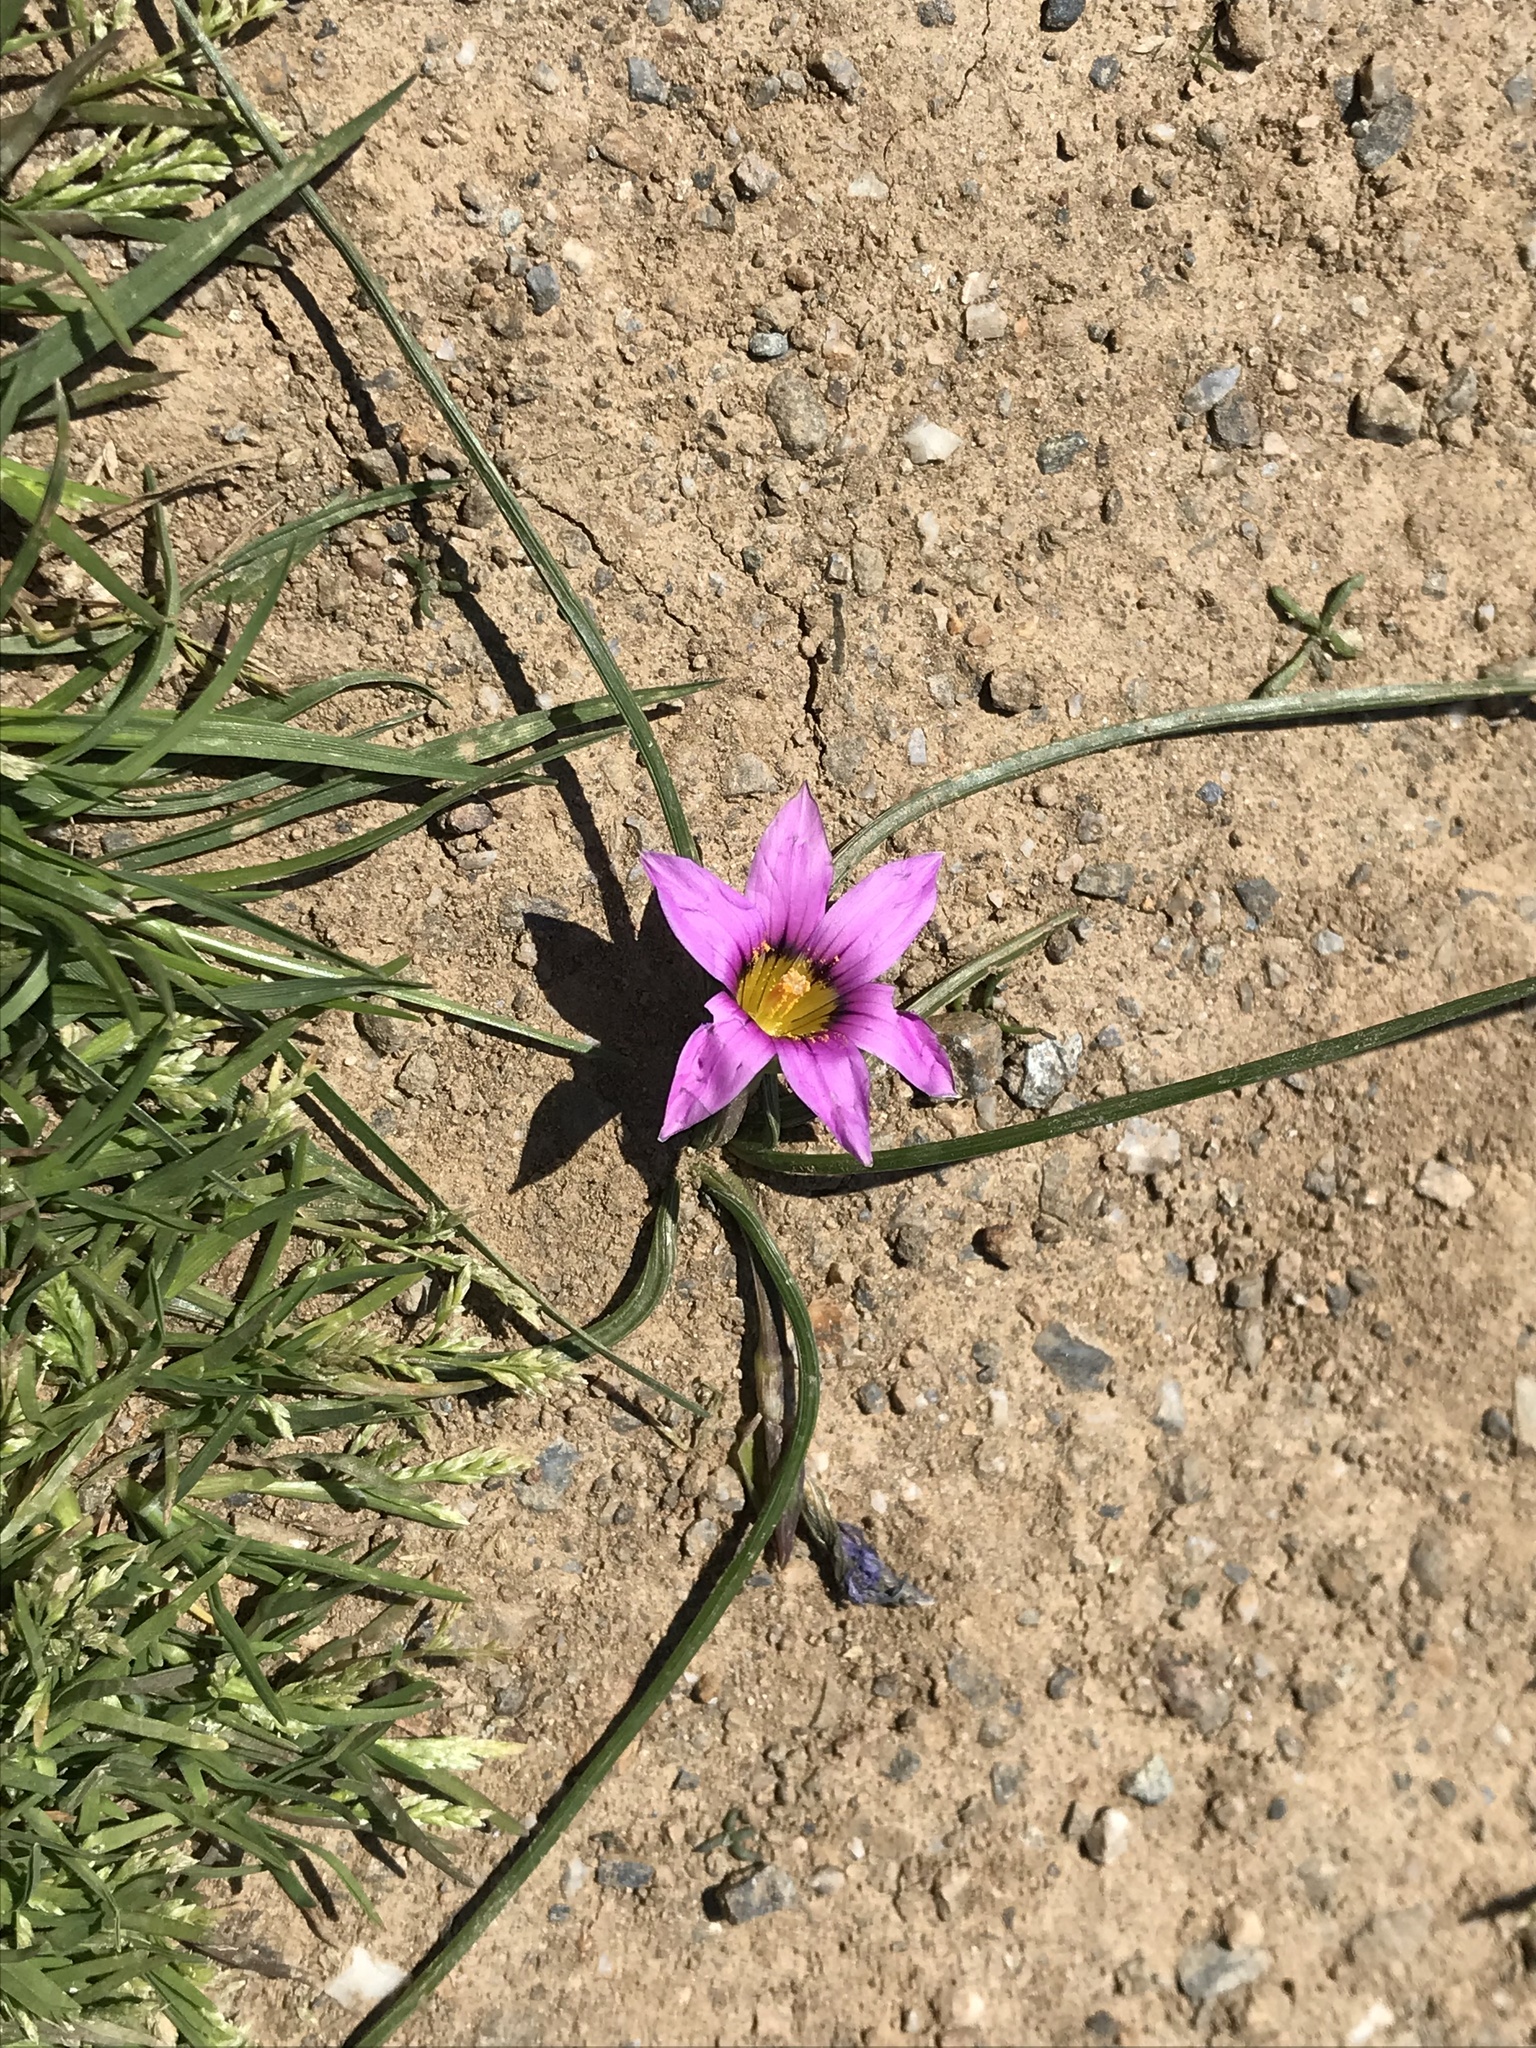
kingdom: Plantae
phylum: Tracheophyta
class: Liliopsida
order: Asparagales
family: Iridaceae
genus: Romulea
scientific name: Romulea rosea
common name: Oniongrass
